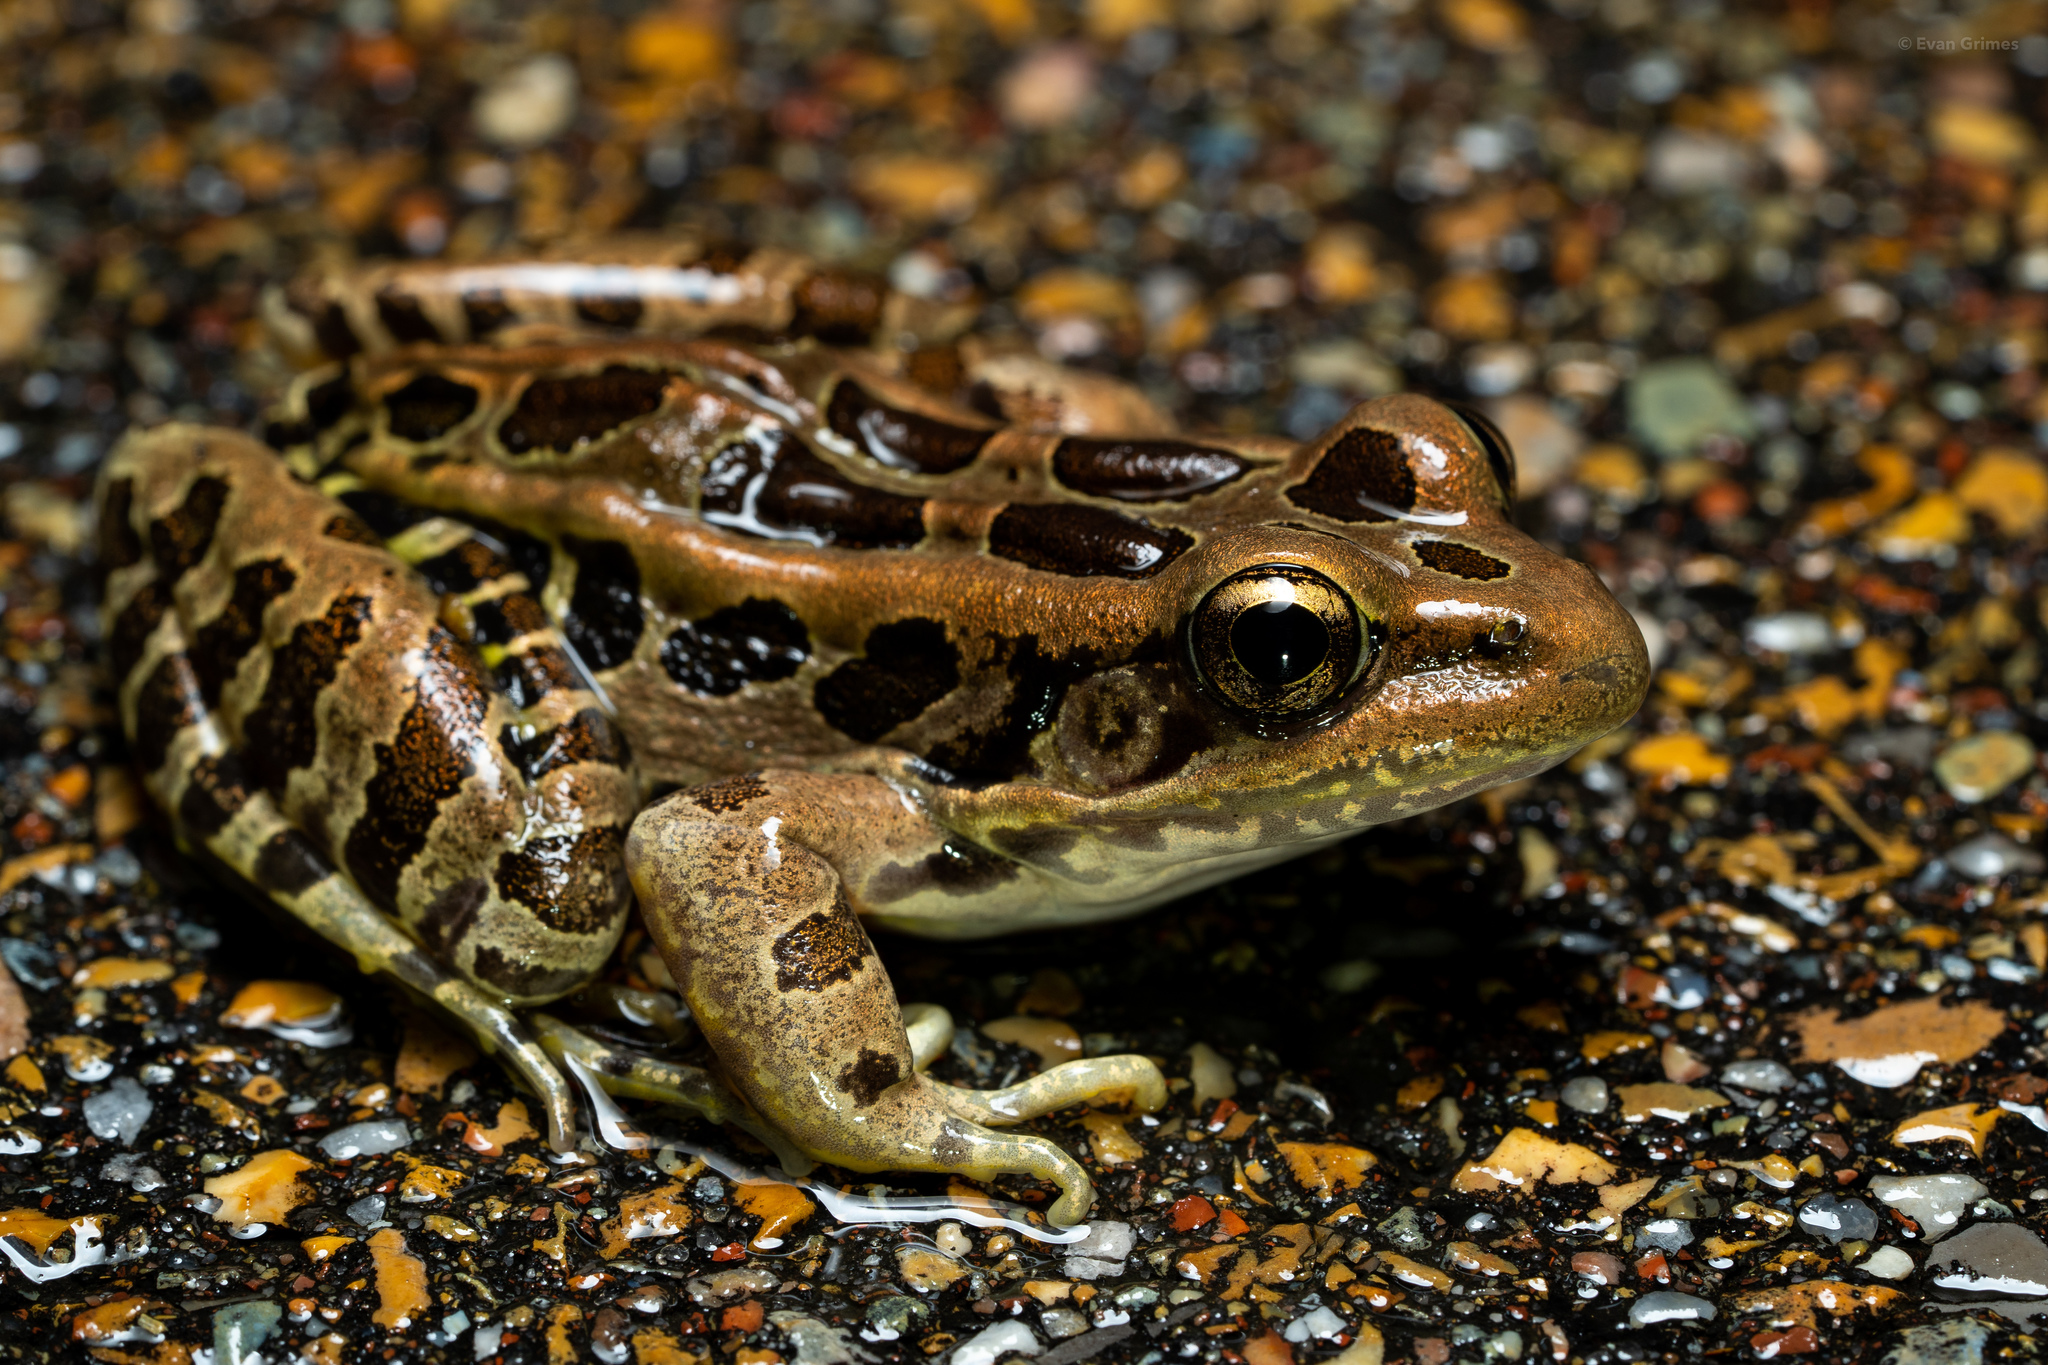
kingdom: Animalia
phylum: Chordata
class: Amphibia
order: Anura
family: Ranidae
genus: Lithobates
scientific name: Lithobates palustris
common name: Pickerel frog
